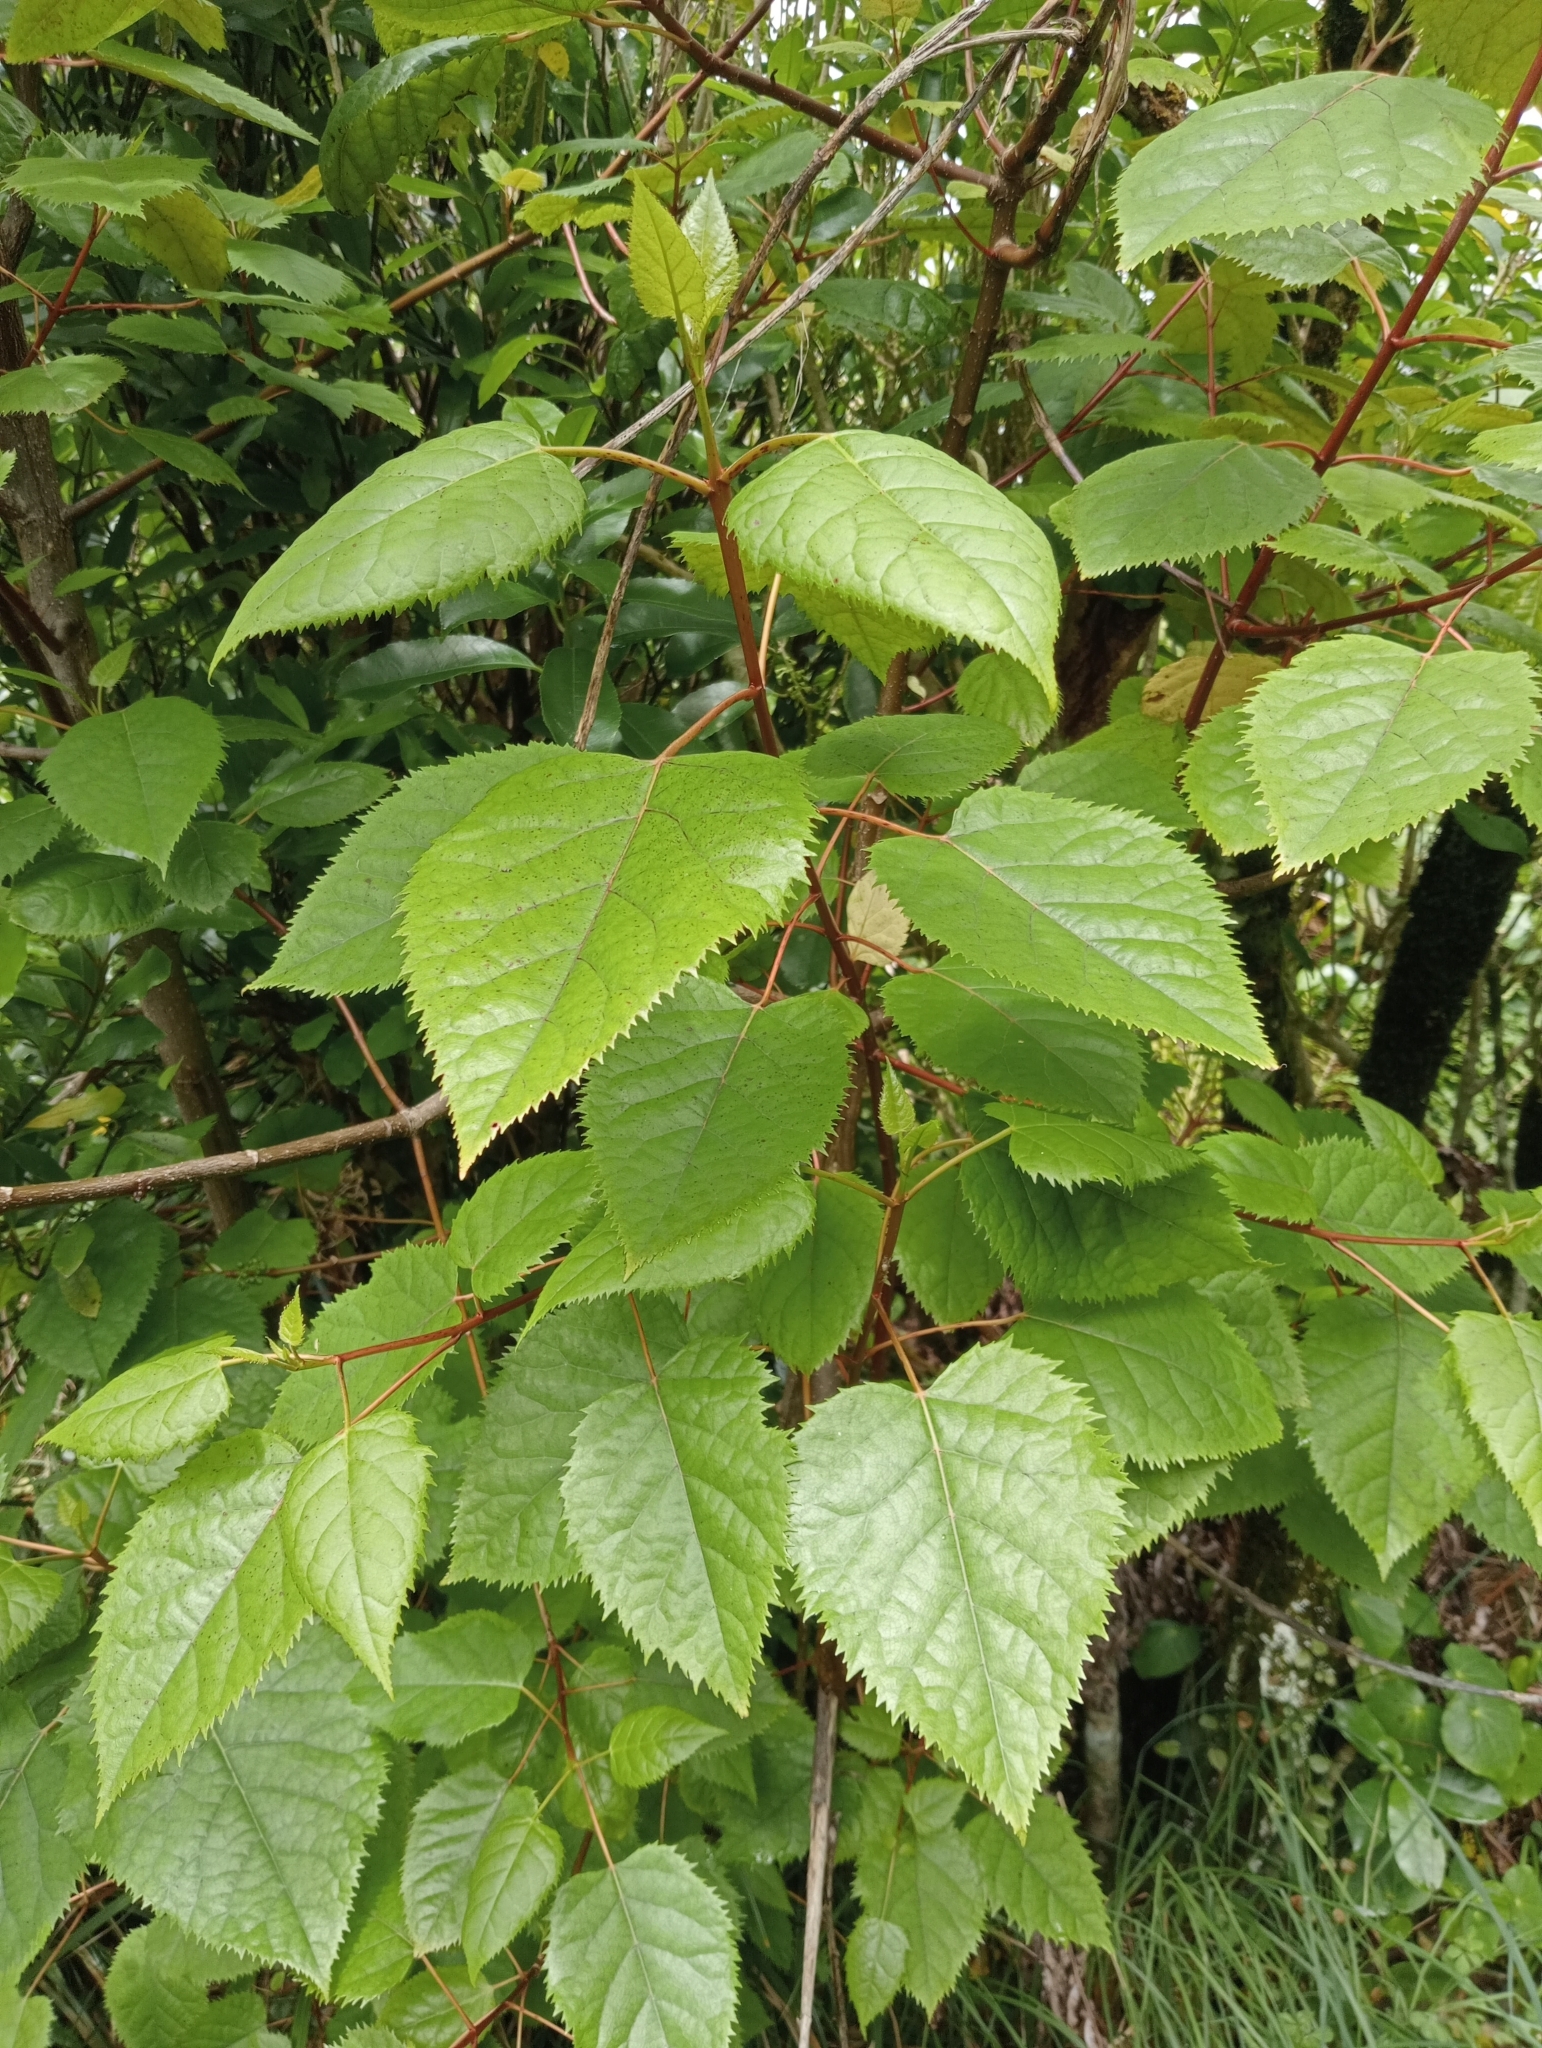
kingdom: Plantae
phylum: Tracheophyta
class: Magnoliopsida
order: Oxalidales
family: Elaeocarpaceae
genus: Aristotelia
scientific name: Aristotelia serrata
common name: New zealand wineberry
